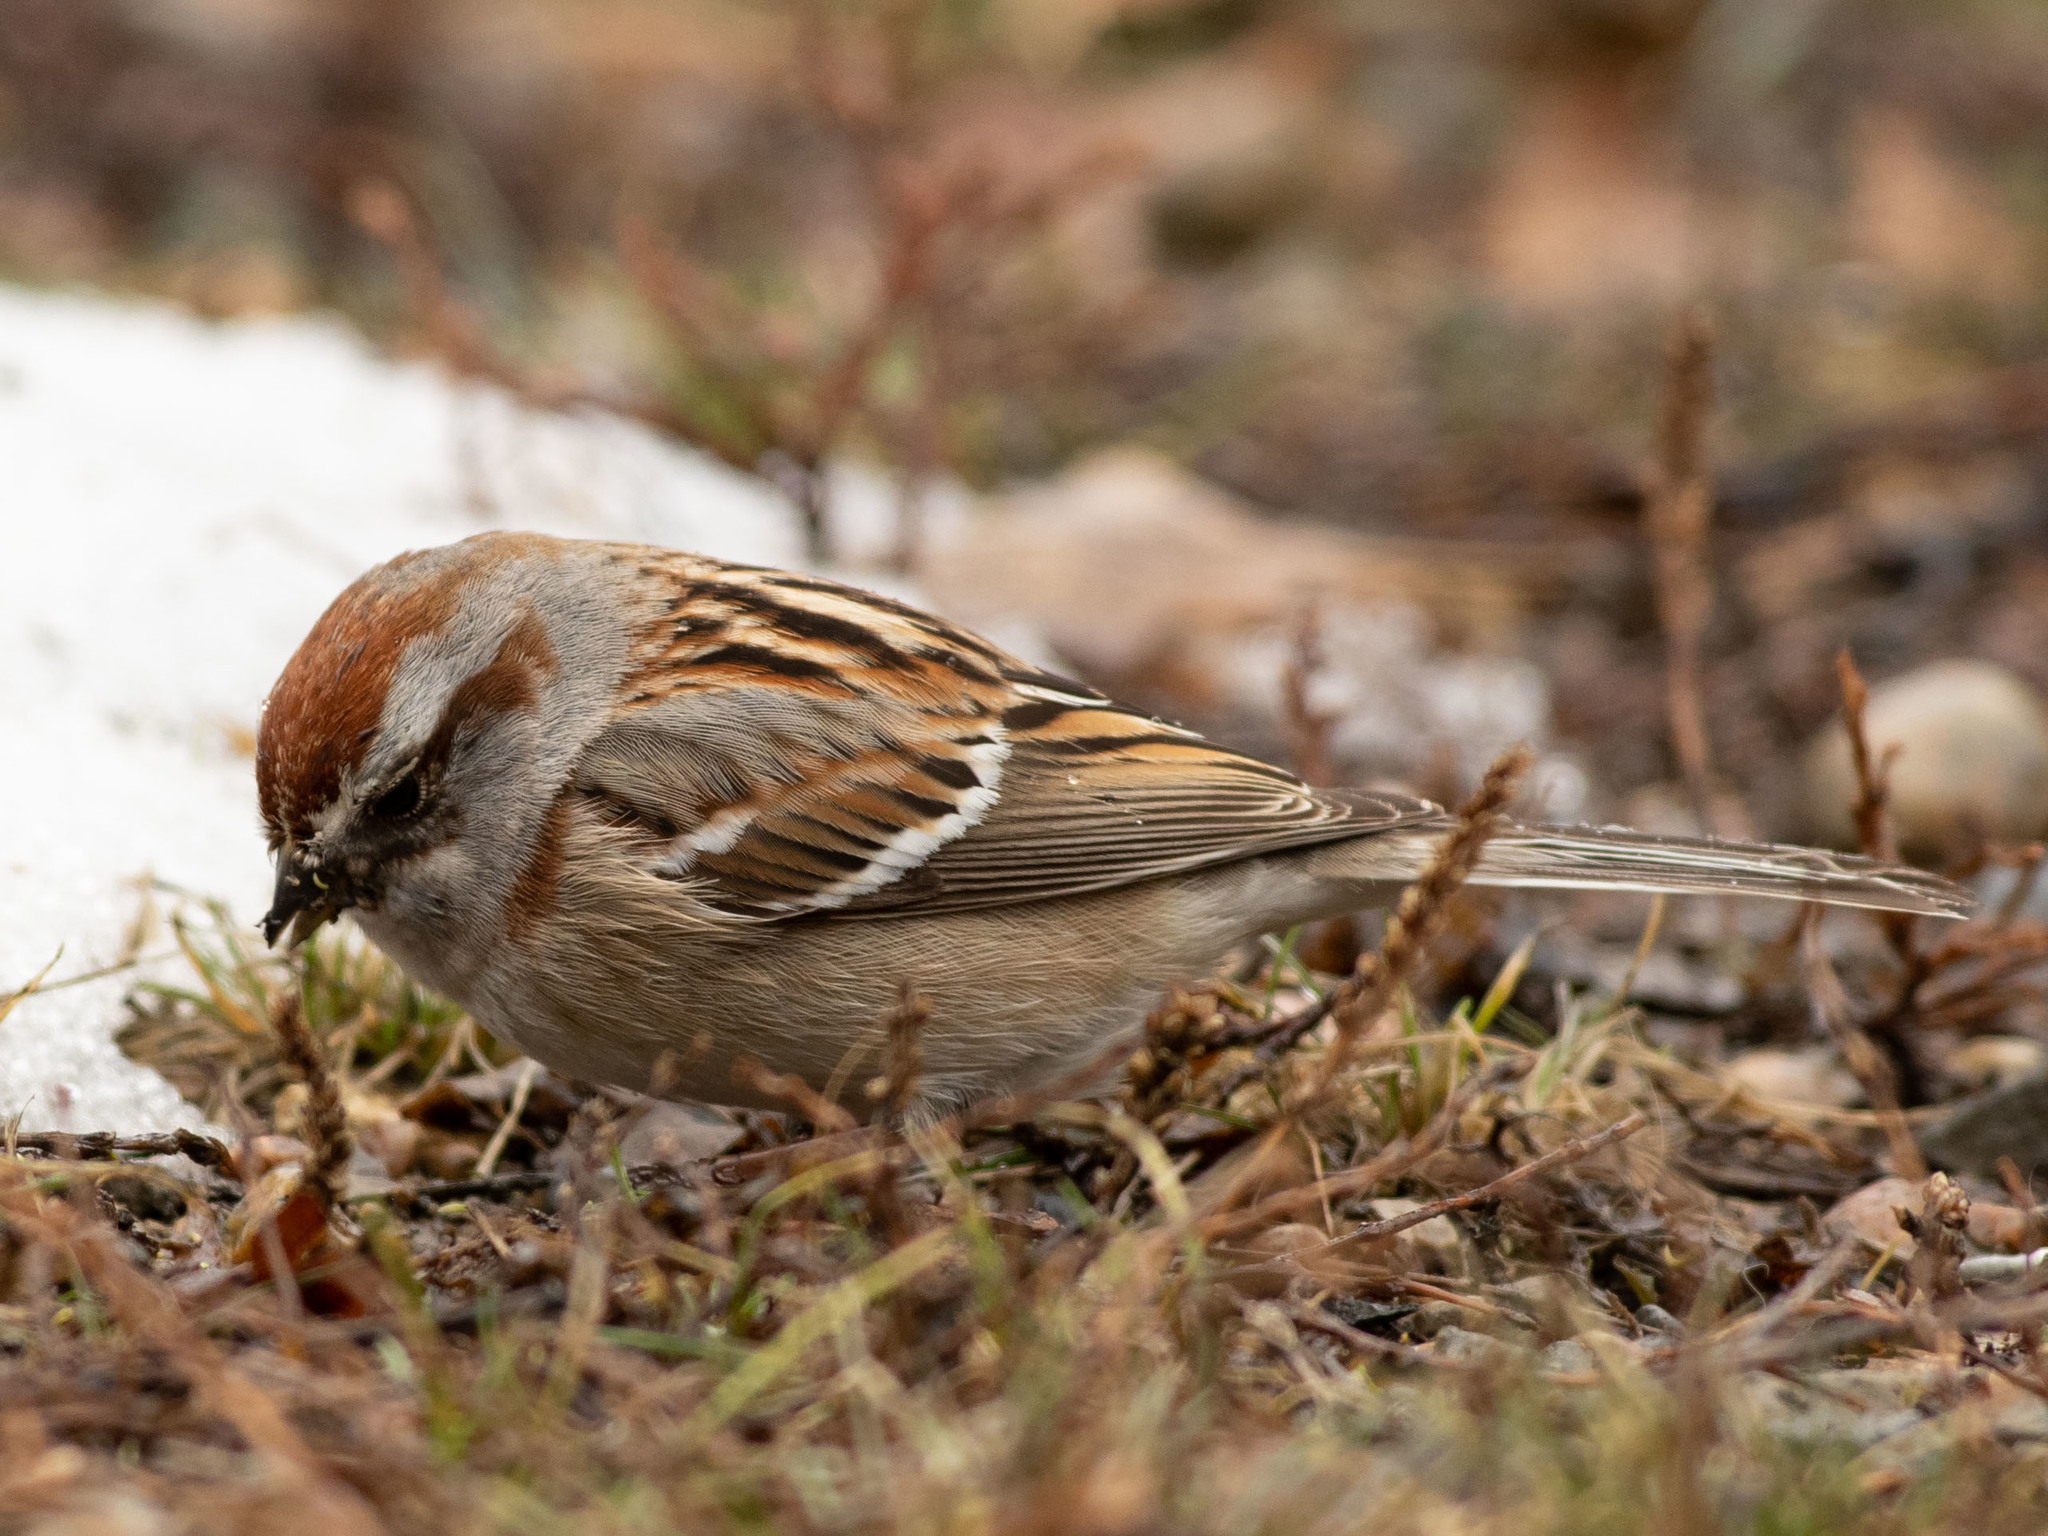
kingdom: Animalia
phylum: Chordata
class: Aves
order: Passeriformes
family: Passerellidae
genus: Spizelloides
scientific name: Spizelloides arborea
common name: American tree sparrow
